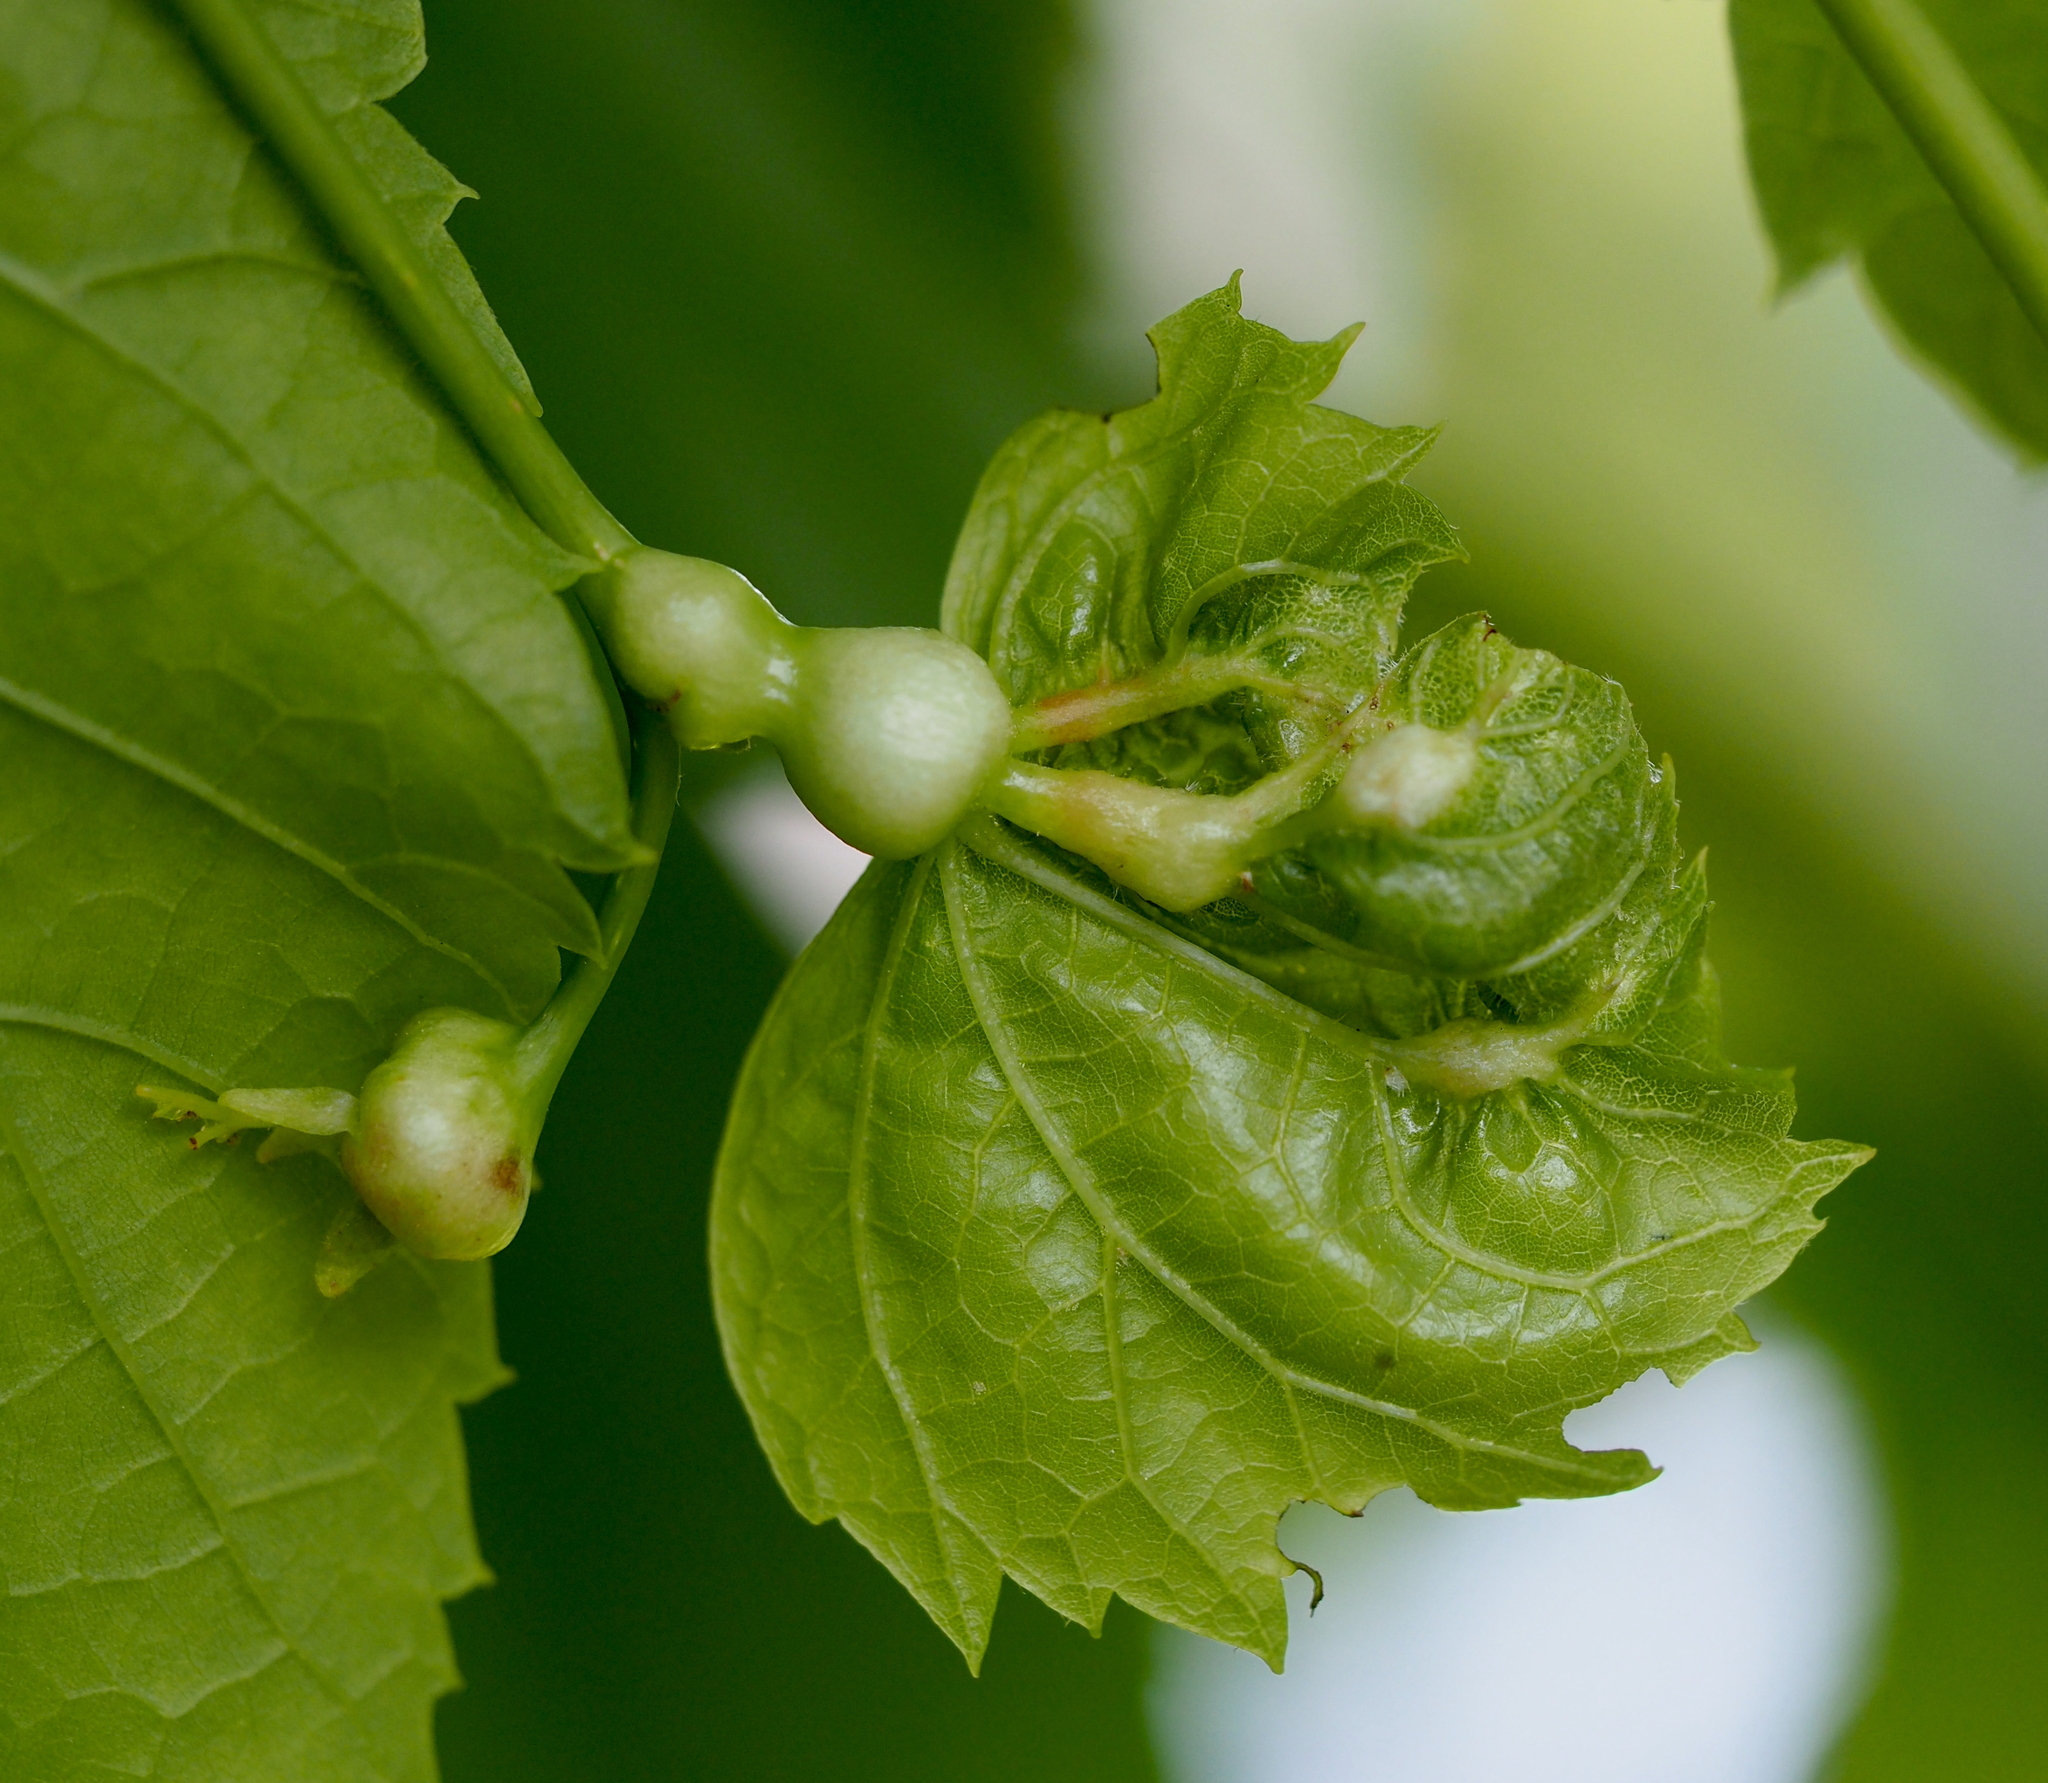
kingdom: Animalia
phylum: Arthropoda
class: Insecta
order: Diptera
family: Cecidomyiidae
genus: Contarinia
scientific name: Contarinia tiliarum
